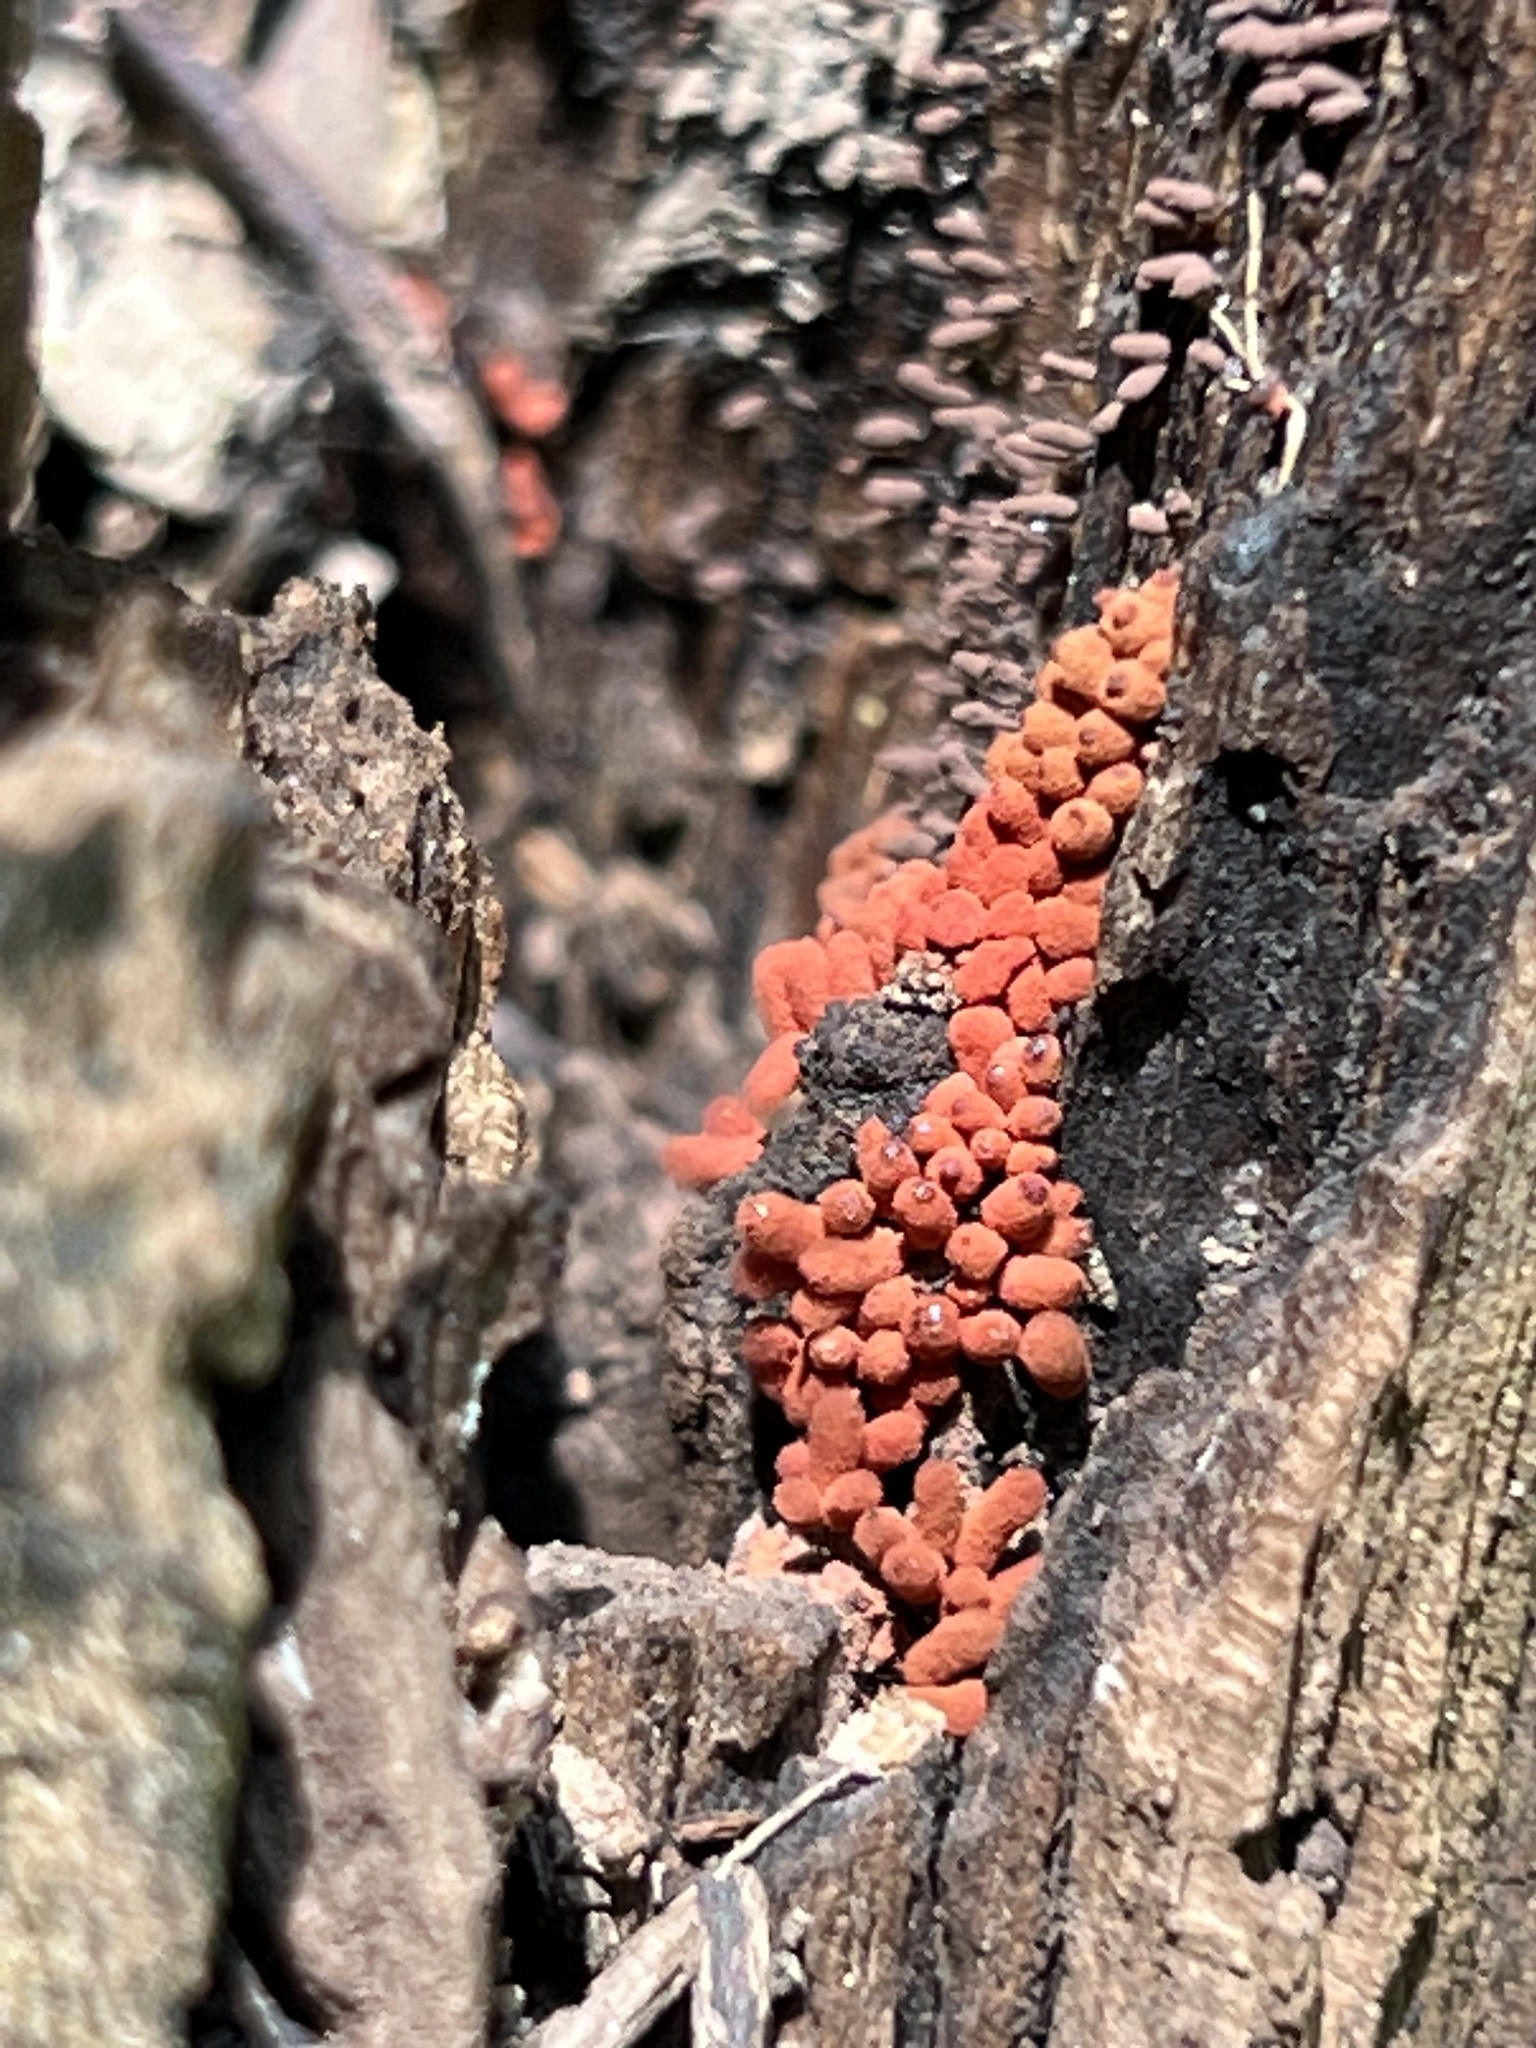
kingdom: Protozoa
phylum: Mycetozoa
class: Myxomycetes
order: Trichiales
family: Arcyriaceae
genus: Arcyria
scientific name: Arcyria denudata
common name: Carnival candy slime mold
